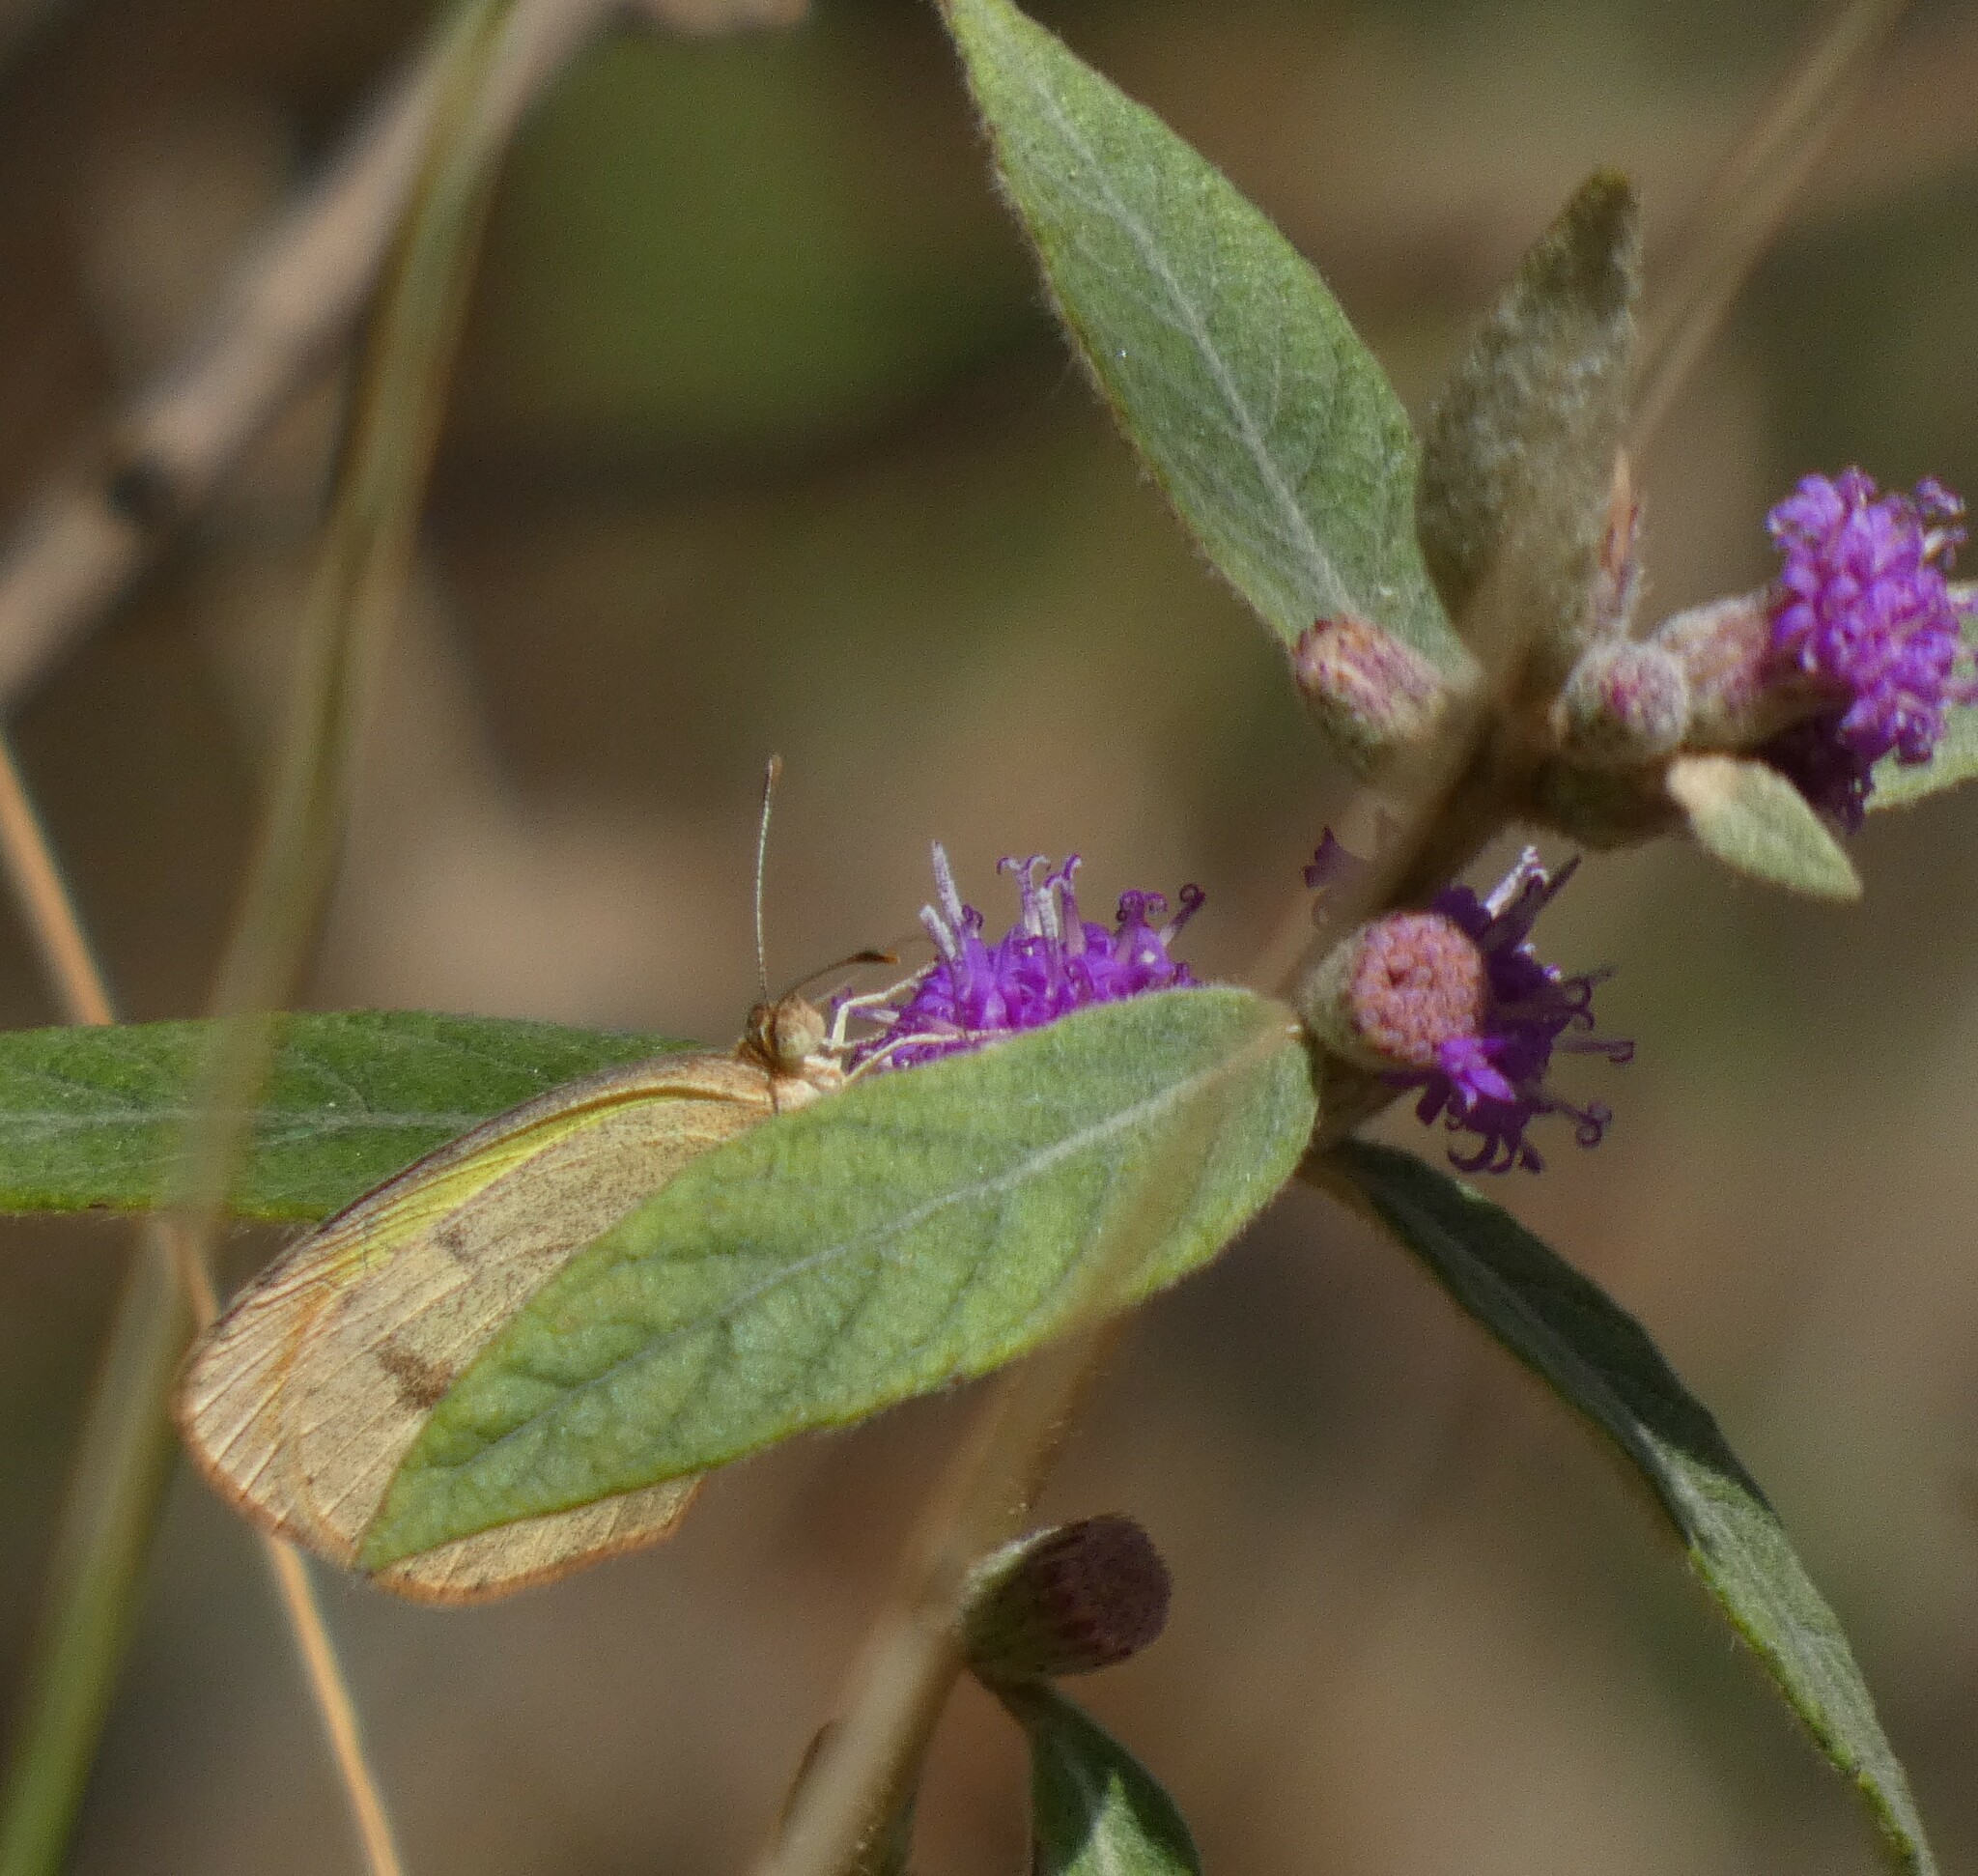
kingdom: Animalia
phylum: Arthropoda
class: Insecta
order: Lepidoptera
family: Pieridae
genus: Eurema
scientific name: Eurema elathea
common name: Banded yellow
